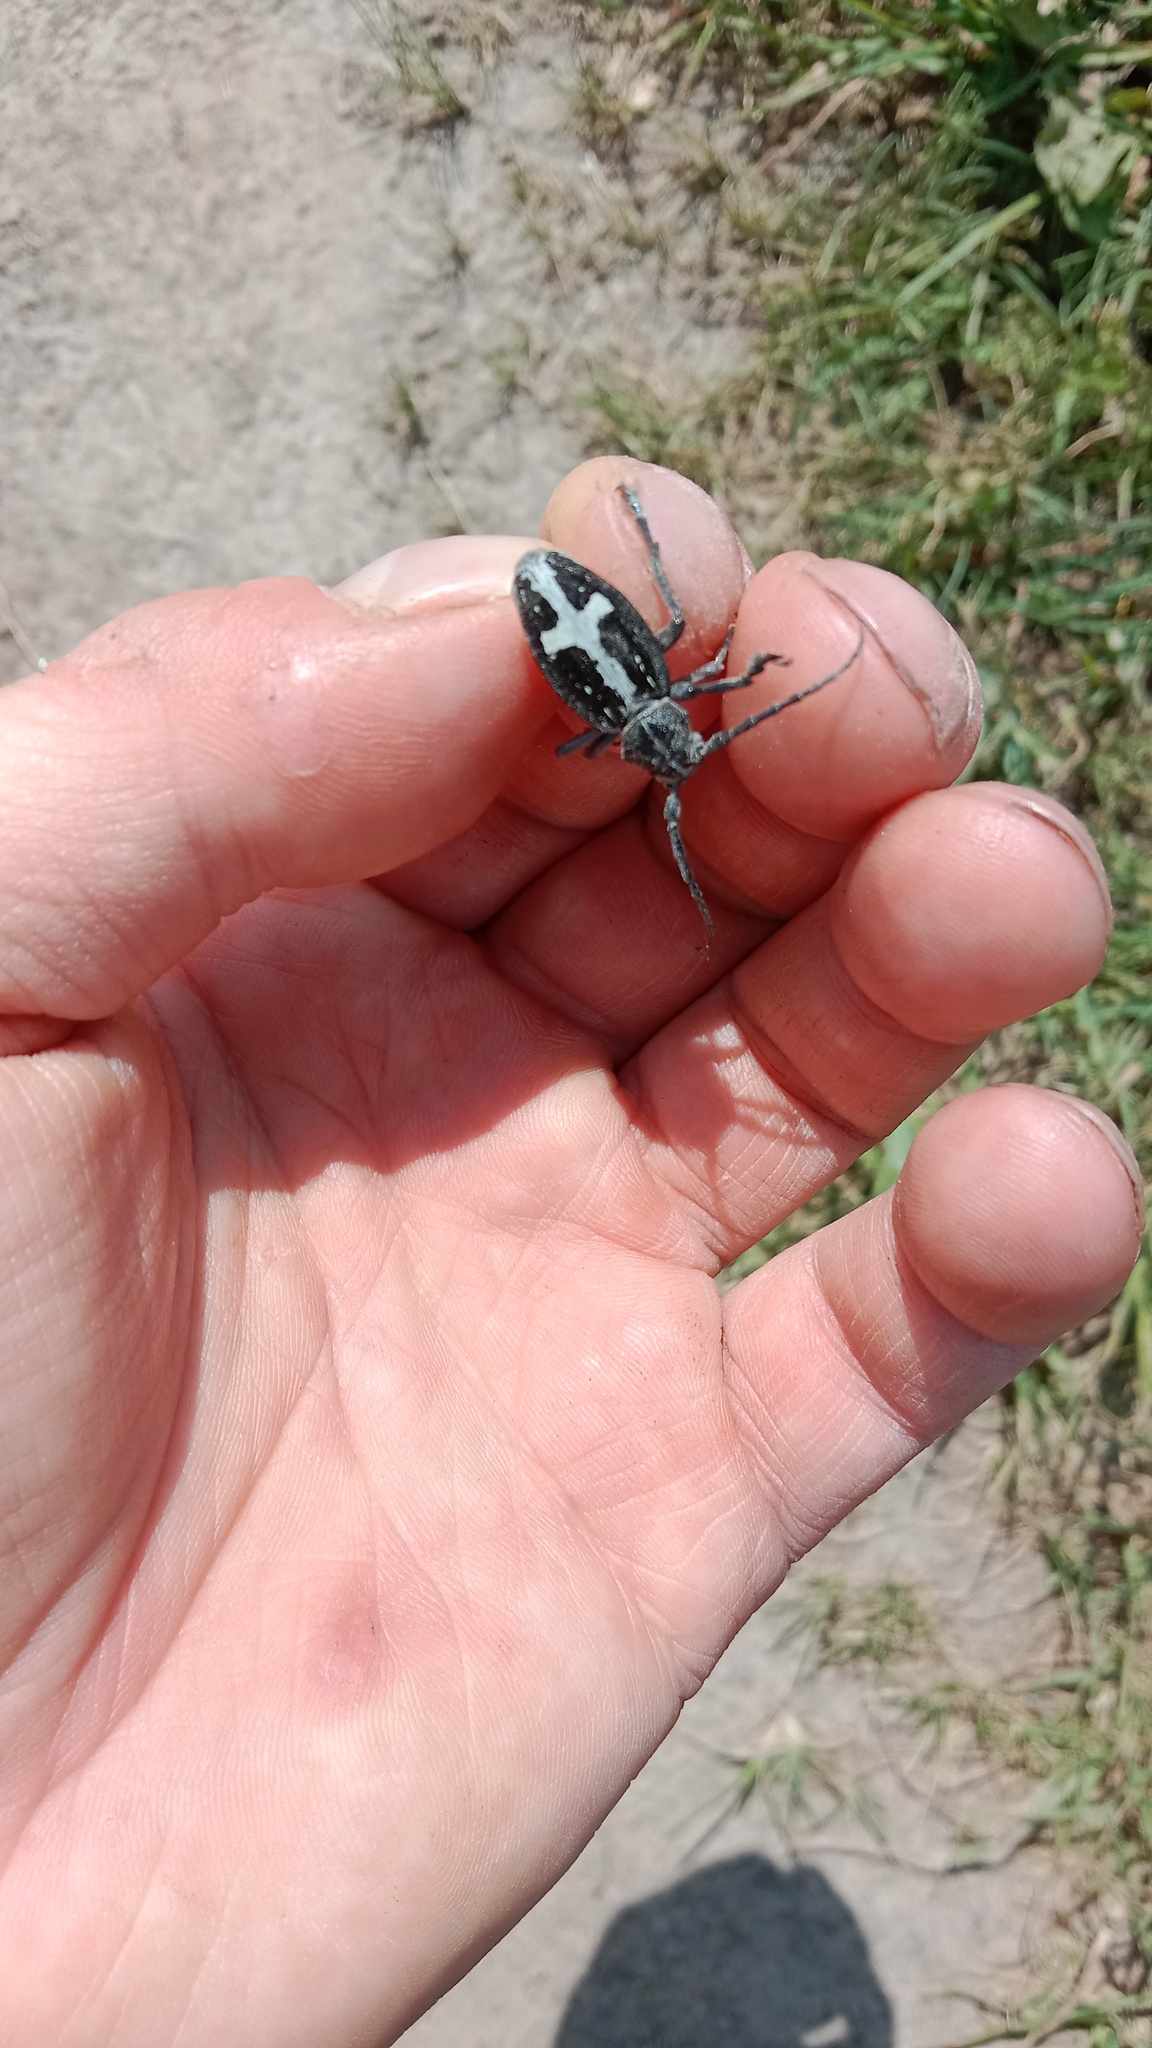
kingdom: Animalia
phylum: Arthropoda
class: Insecta
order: Coleoptera
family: Cerambycidae
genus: Dorcadion
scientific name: Dorcadion equestre
